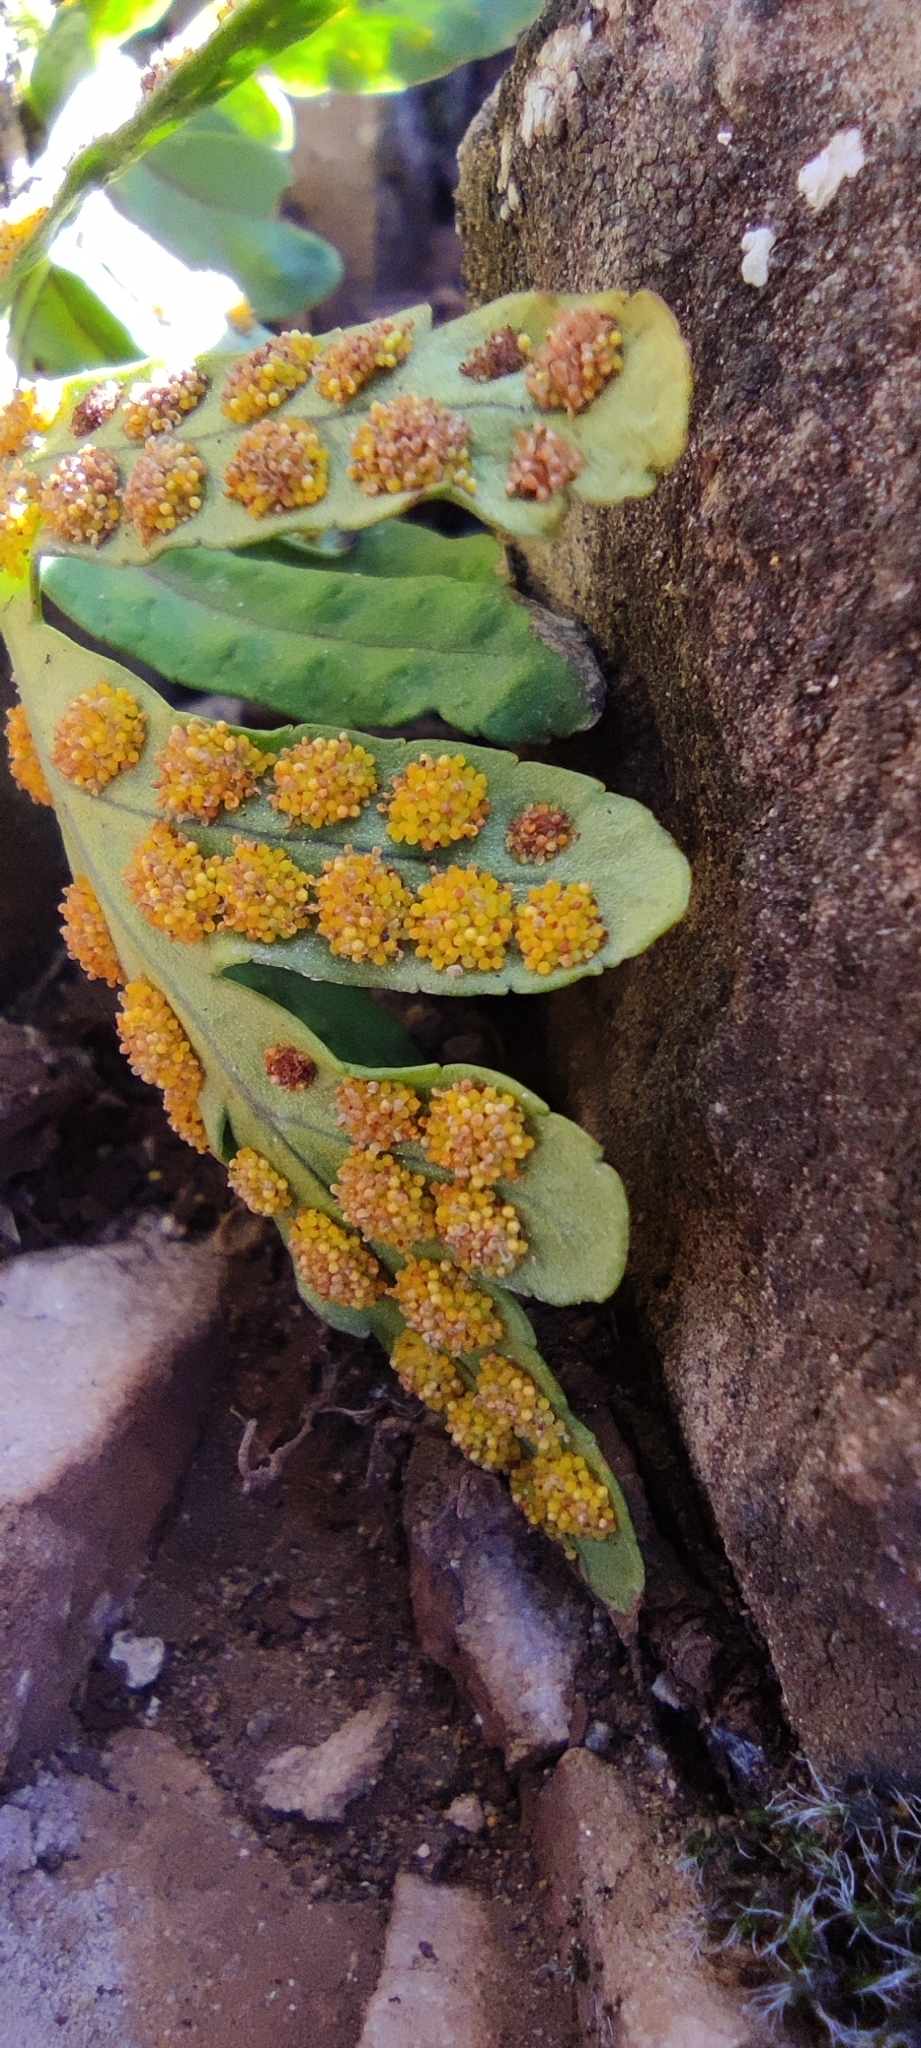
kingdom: Plantae
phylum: Tracheophyta
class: Polypodiopsida
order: Polypodiales
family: Polypodiaceae
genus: Polypodium
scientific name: Polypodium cambricum
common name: Southern polypody
